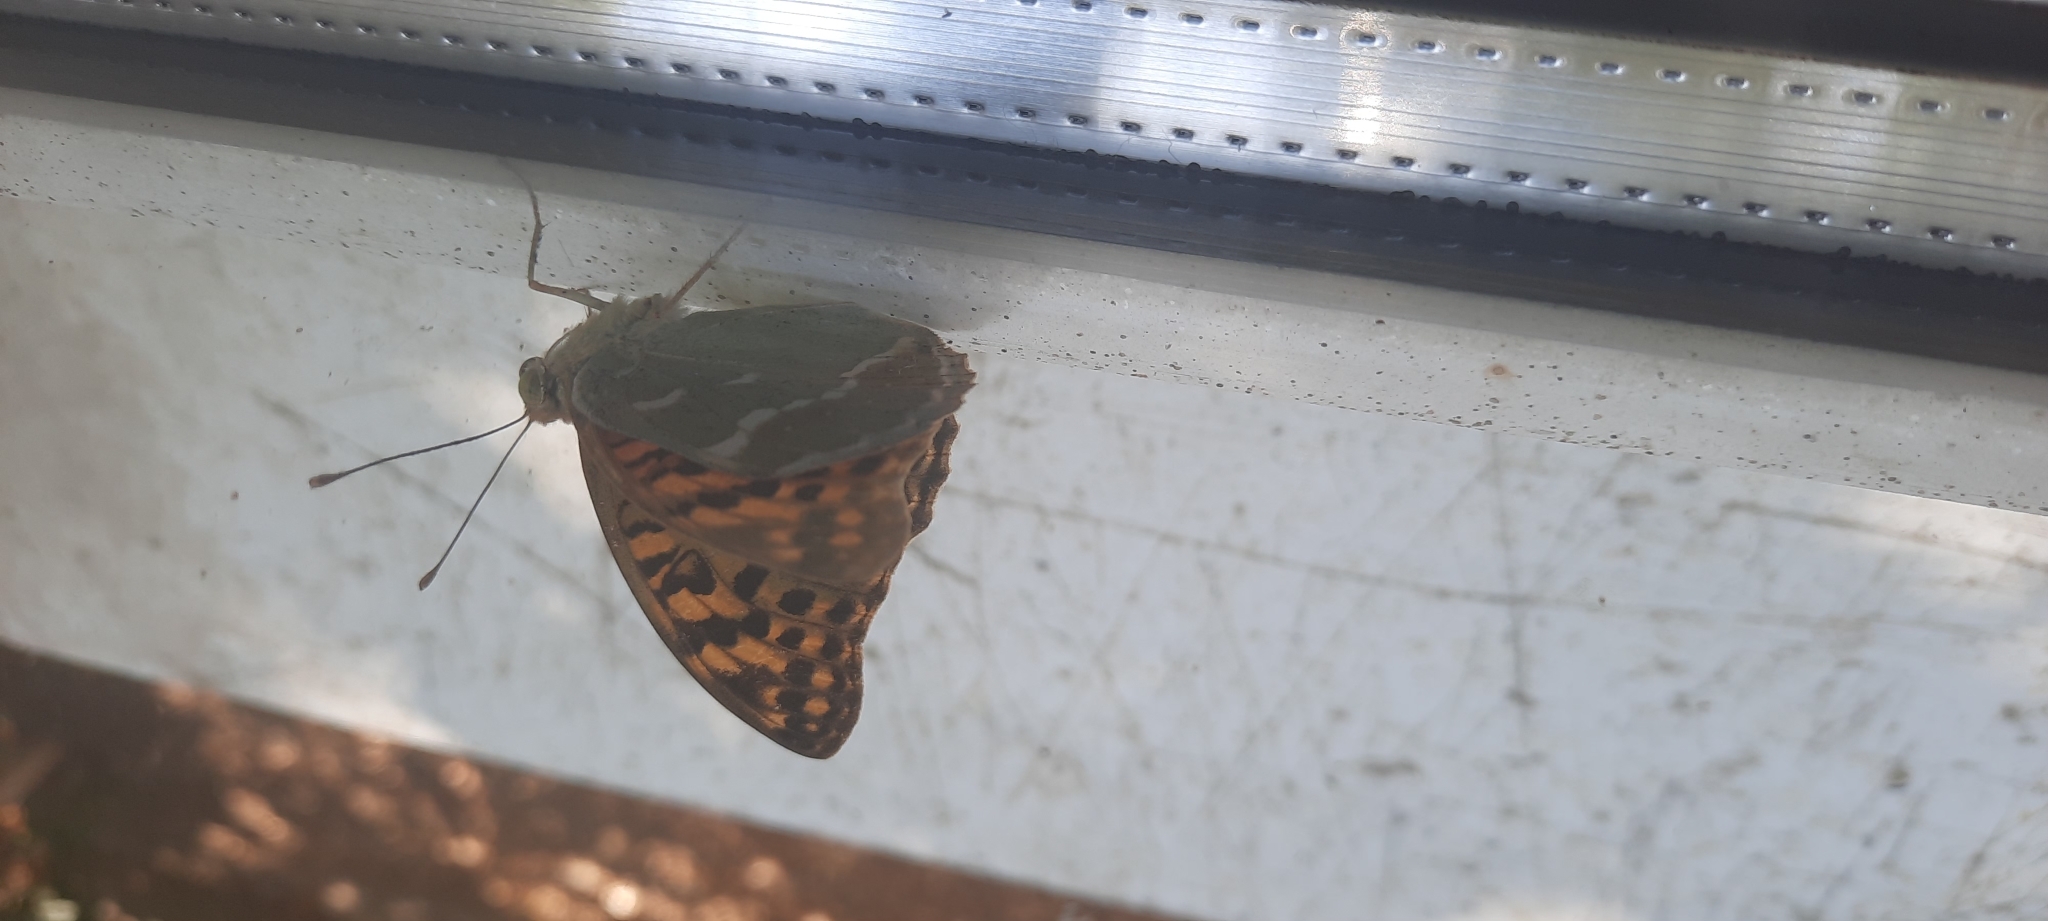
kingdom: Animalia
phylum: Arthropoda
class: Insecta
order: Lepidoptera
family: Nymphalidae
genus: Damora
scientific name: Damora pandora
